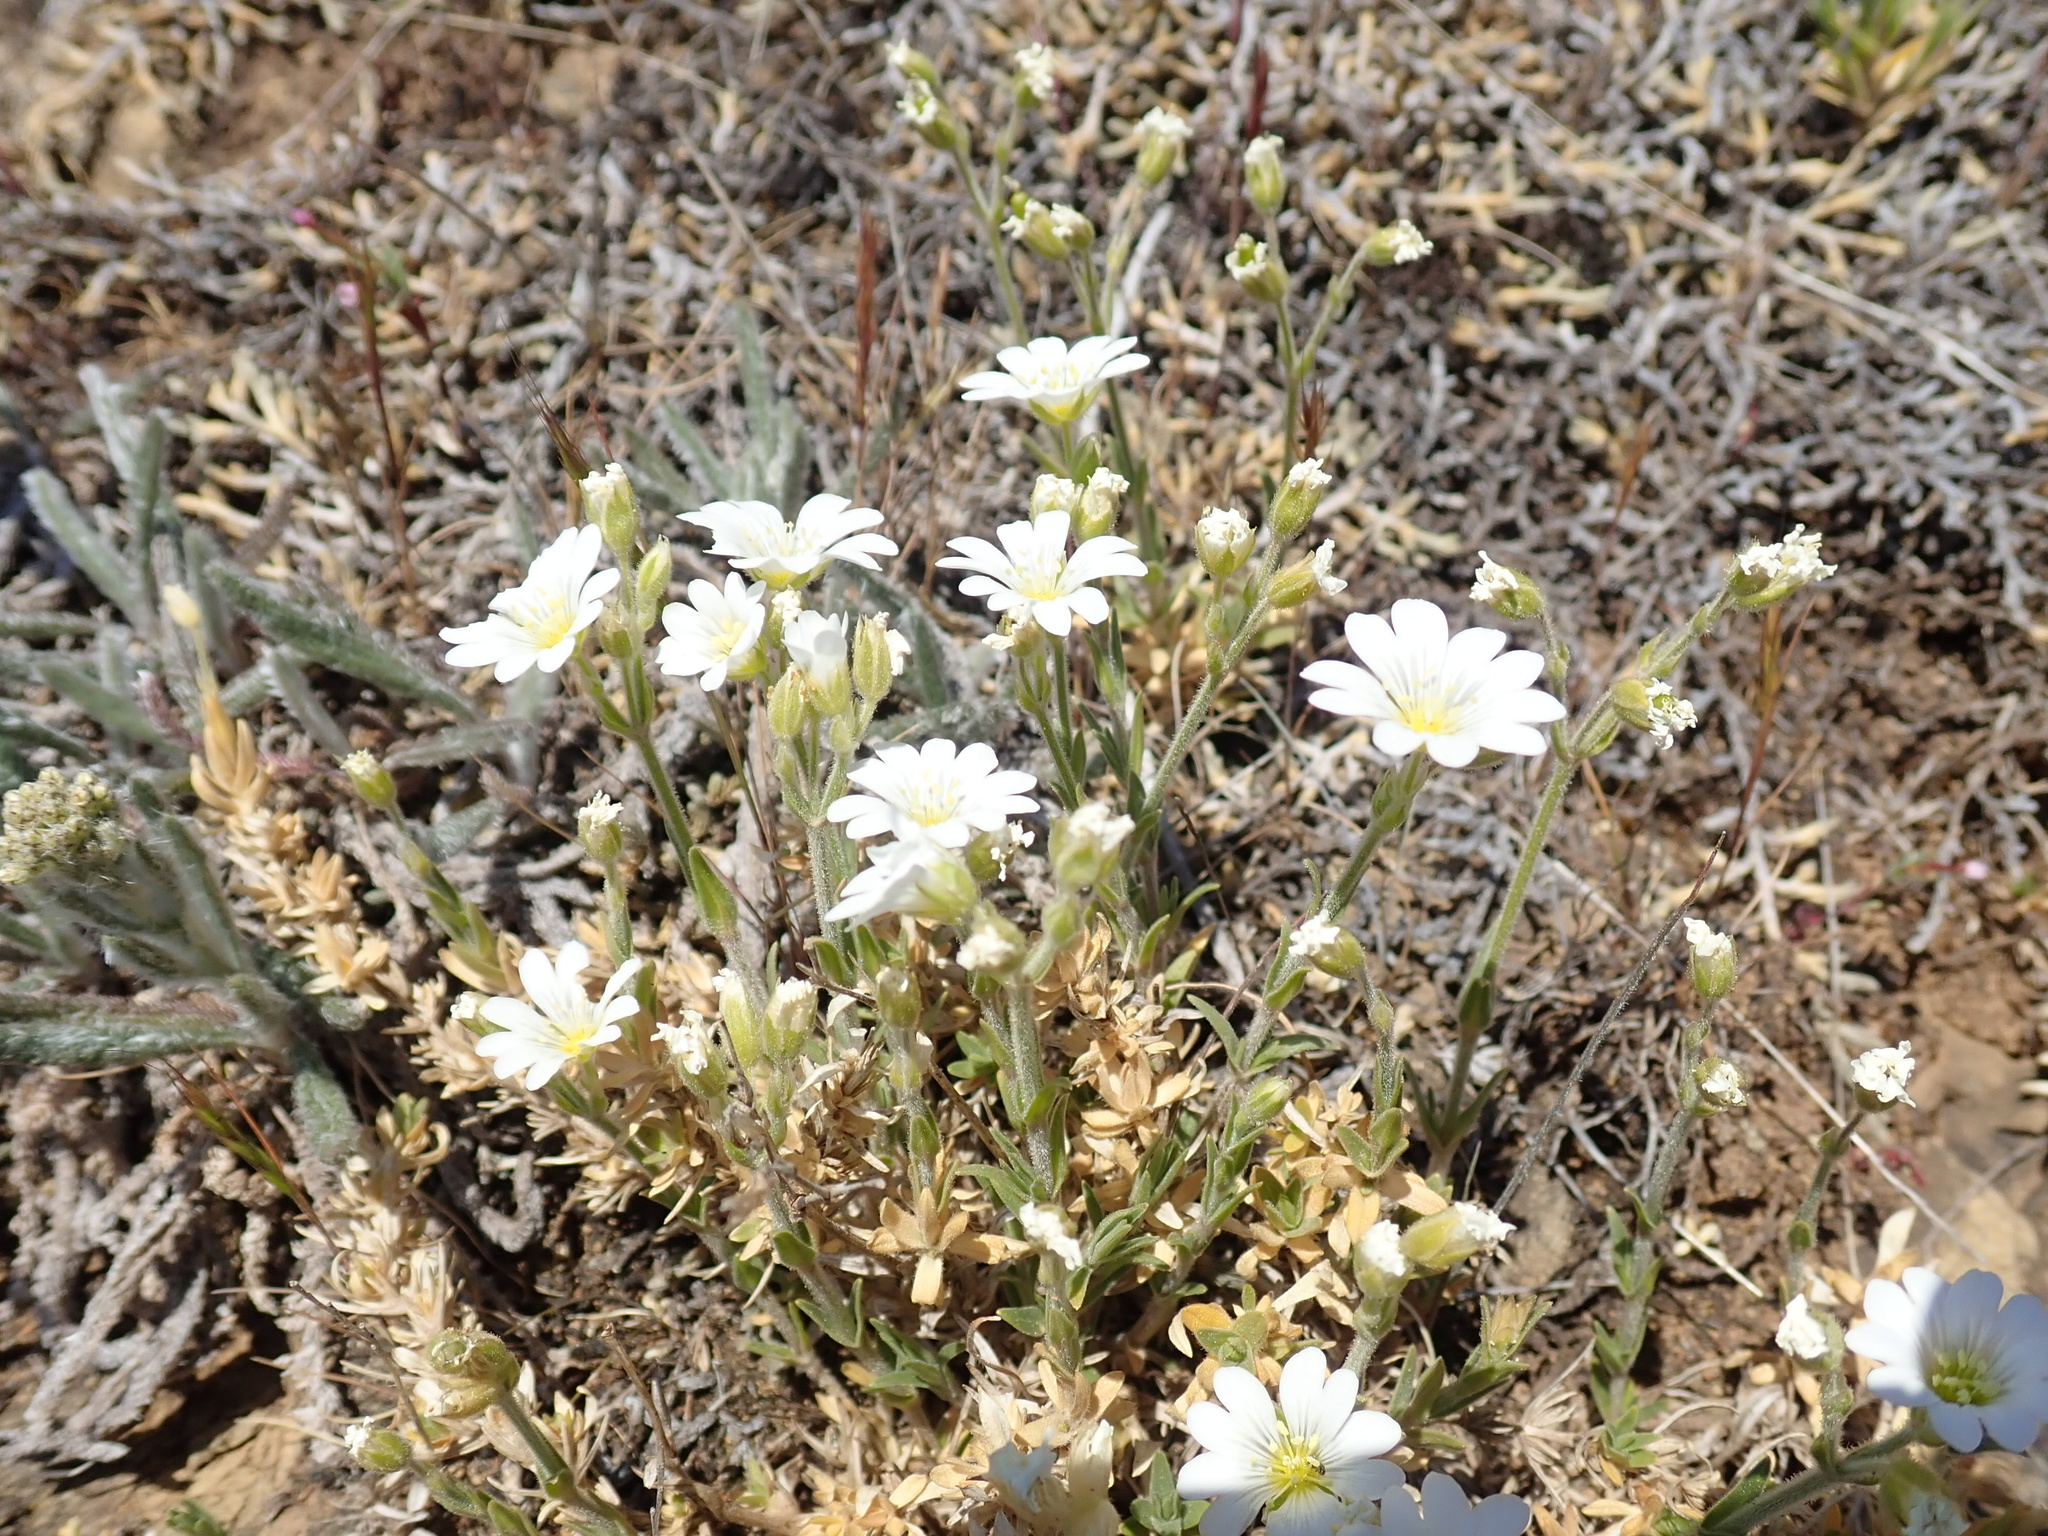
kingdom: Plantae
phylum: Tracheophyta
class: Magnoliopsida
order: Caryophyllales
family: Caryophyllaceae
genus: Cerastium
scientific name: Cerastium arvense
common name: Field mouse-ear
